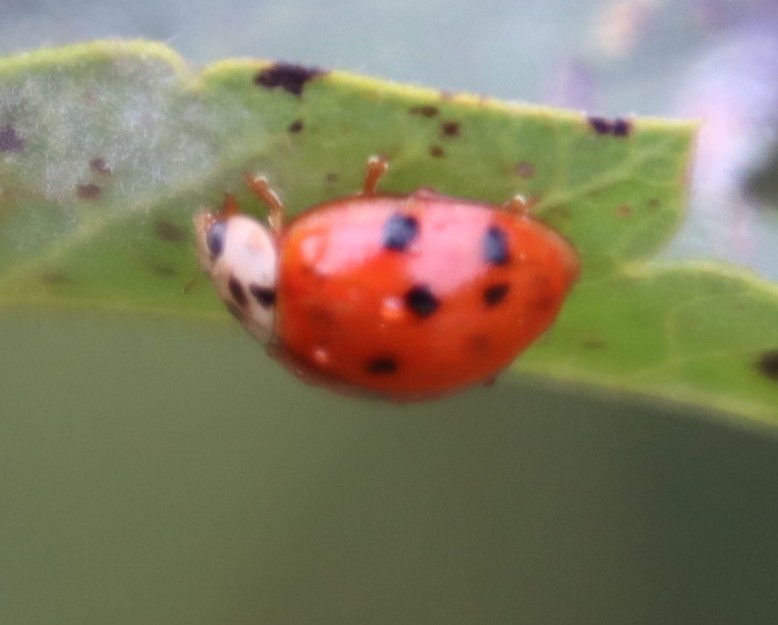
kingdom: Animalia
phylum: Arthropoda
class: Insecta
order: Coleoptera
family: Coccinellidae
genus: Harmonia
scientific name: Harmonia axyridis
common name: Harlequin ladybird
